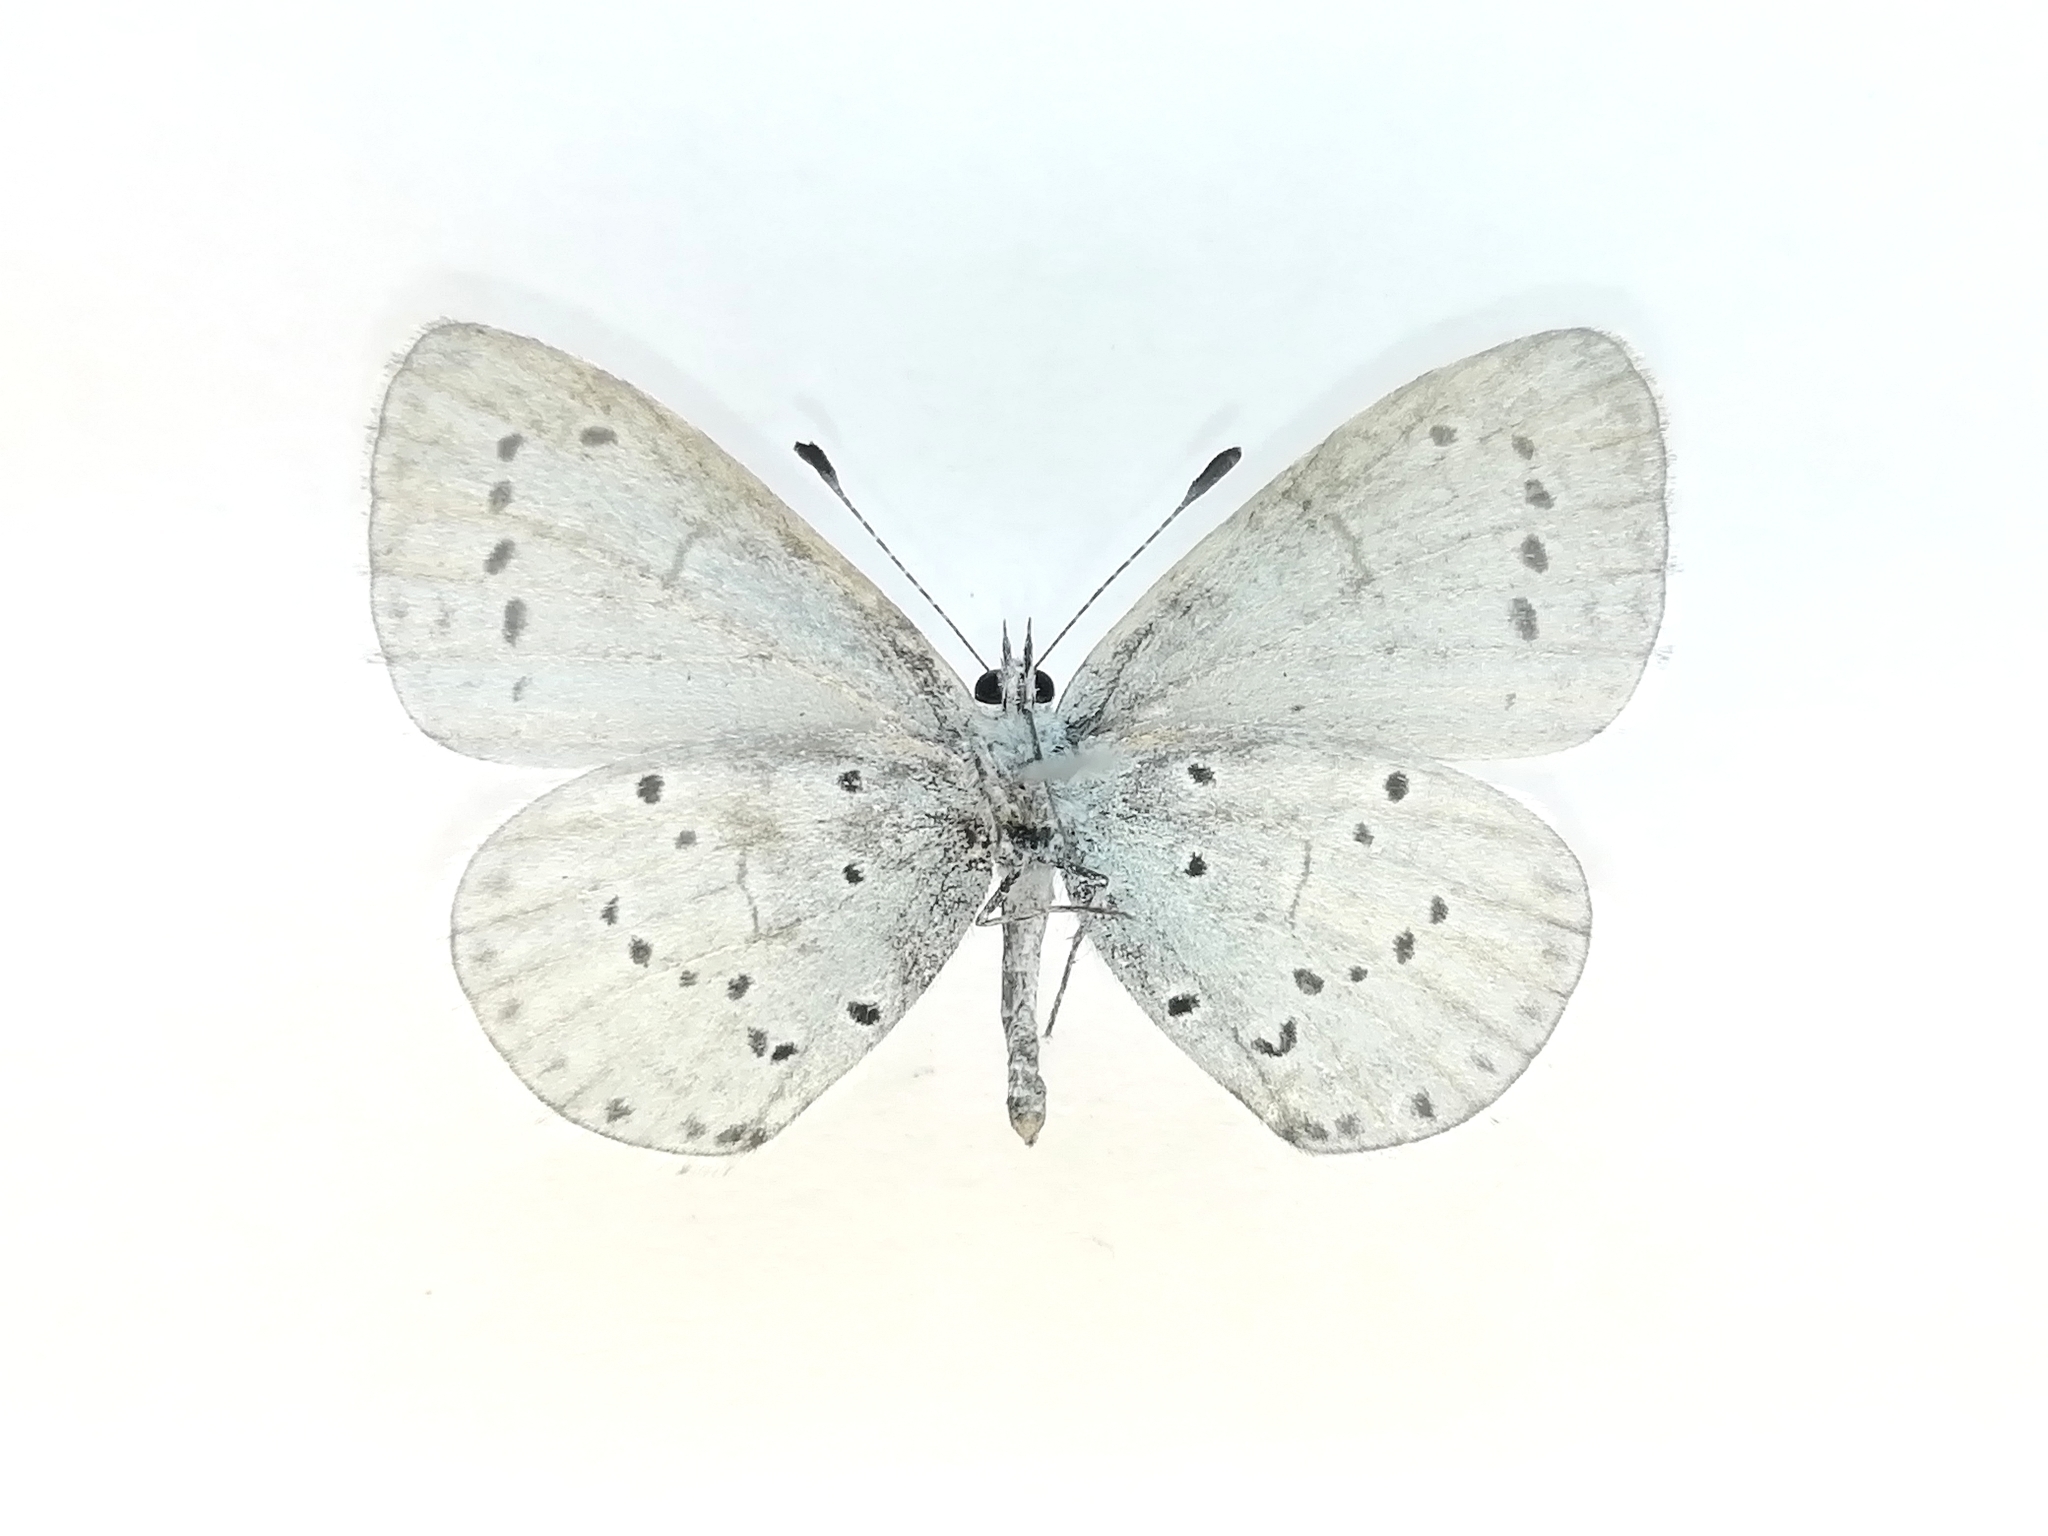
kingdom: Animalia
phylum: Arthropoda
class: Insecta
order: Lepidoptera
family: Lycaenidae
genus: Celastrina
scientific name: Celastrina argiolus
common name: Holly blue
